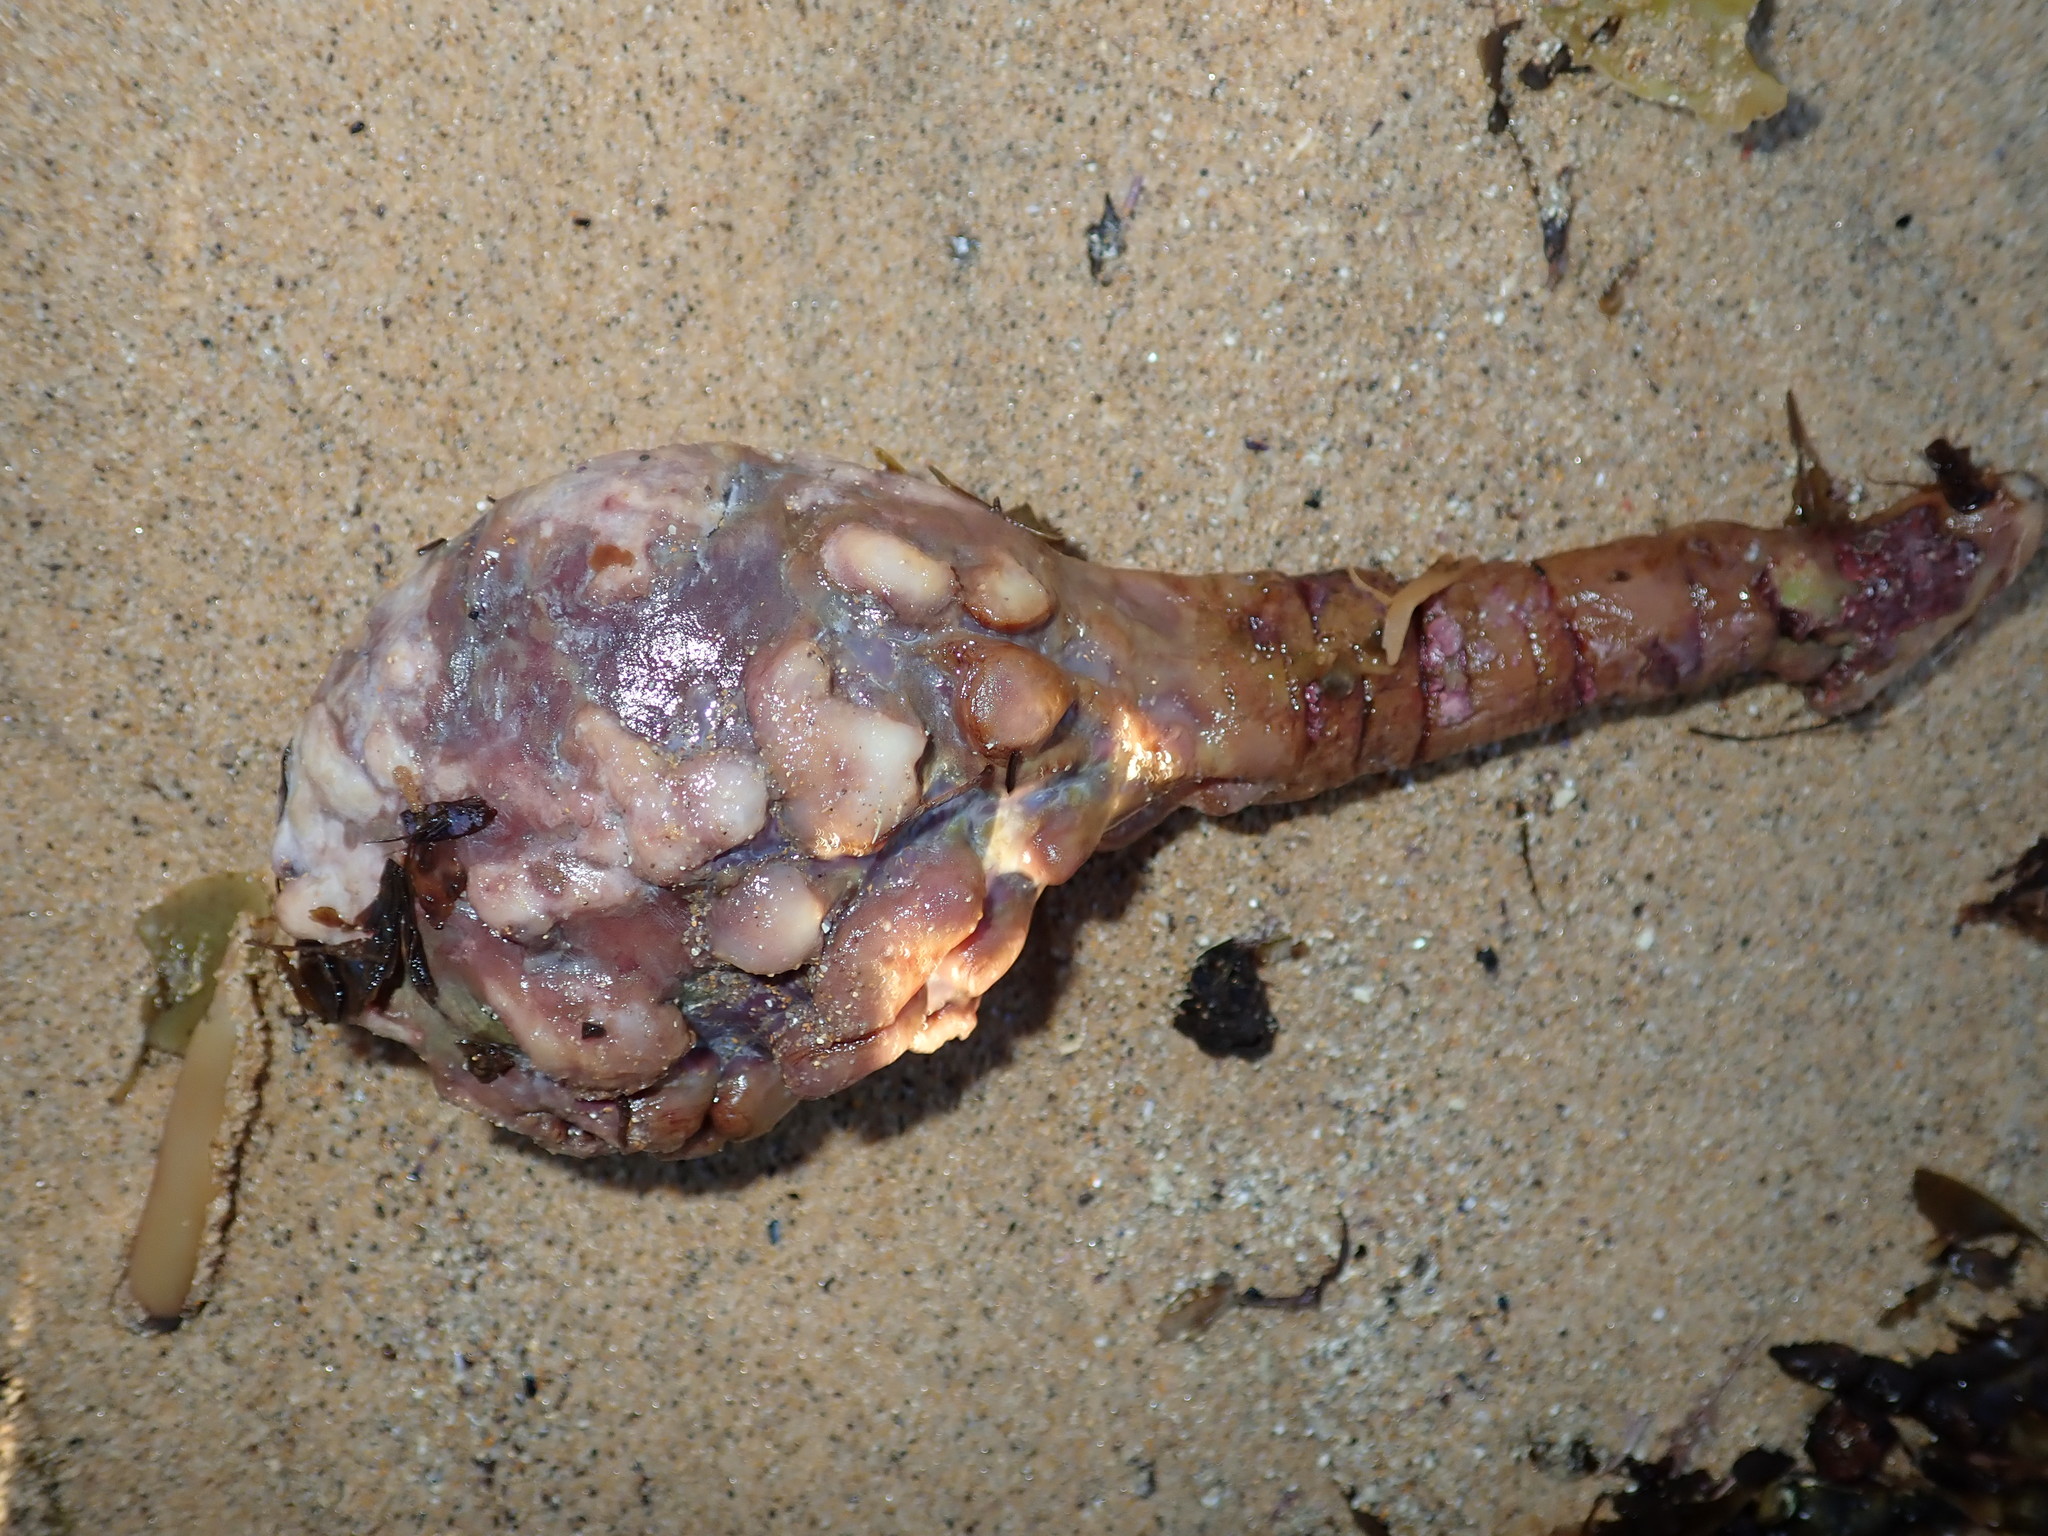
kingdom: Animalia
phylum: Chordata
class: Ascidiacea
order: Stolidobranchia
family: Pyuridae
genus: Pyura
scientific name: Pyura spinifera
